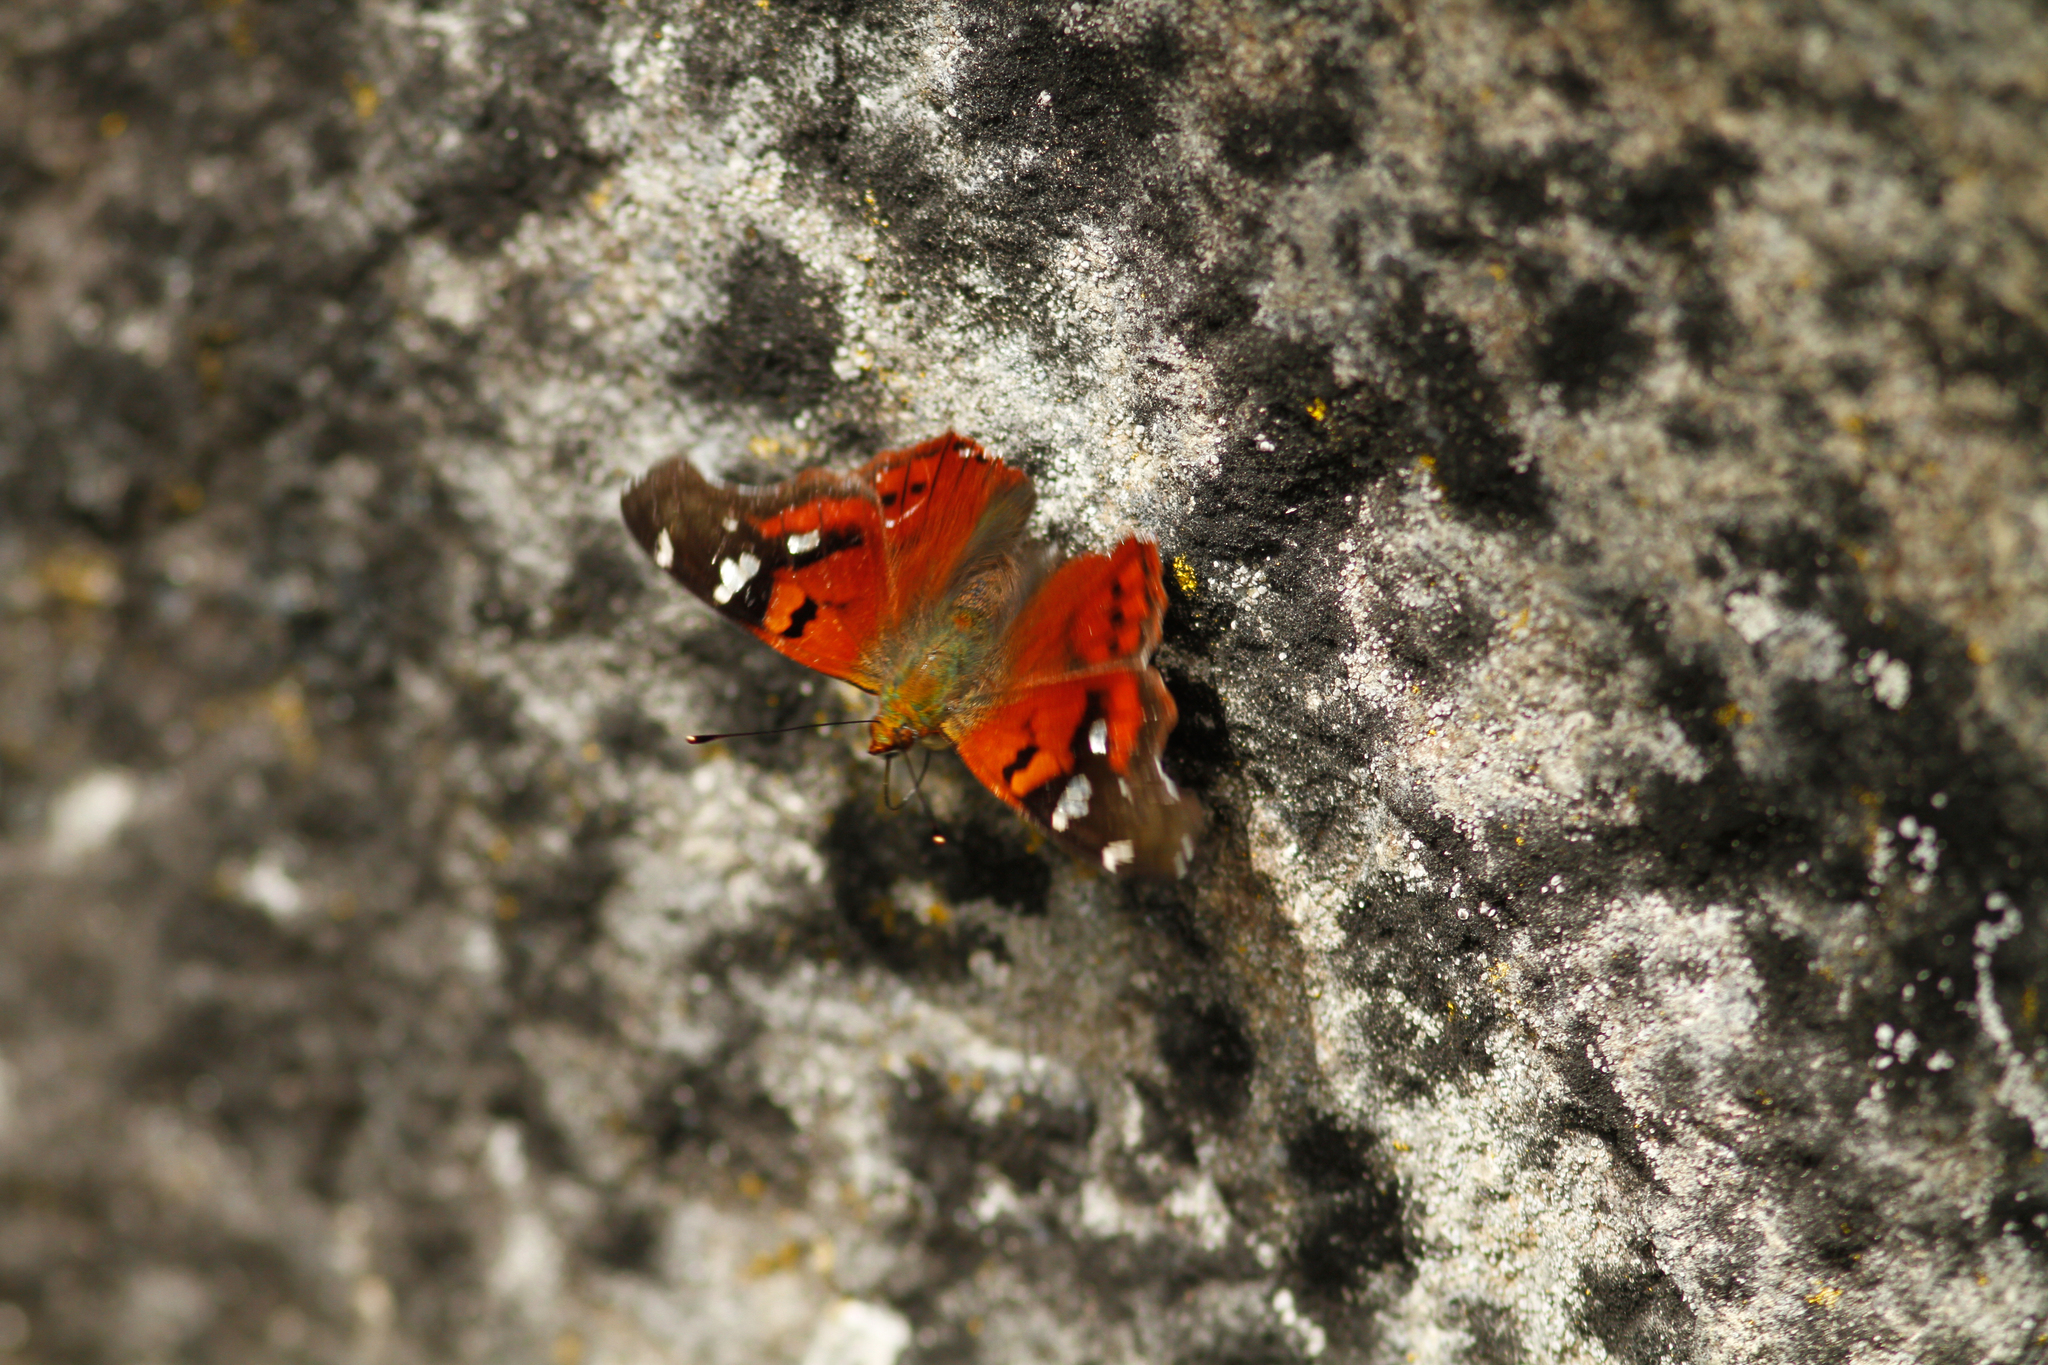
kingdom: Animalia
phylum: Arthropoda
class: Insecta
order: Lepidoptera
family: Nymphalidae
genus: Hypanartia
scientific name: Hypanartia lindigii
